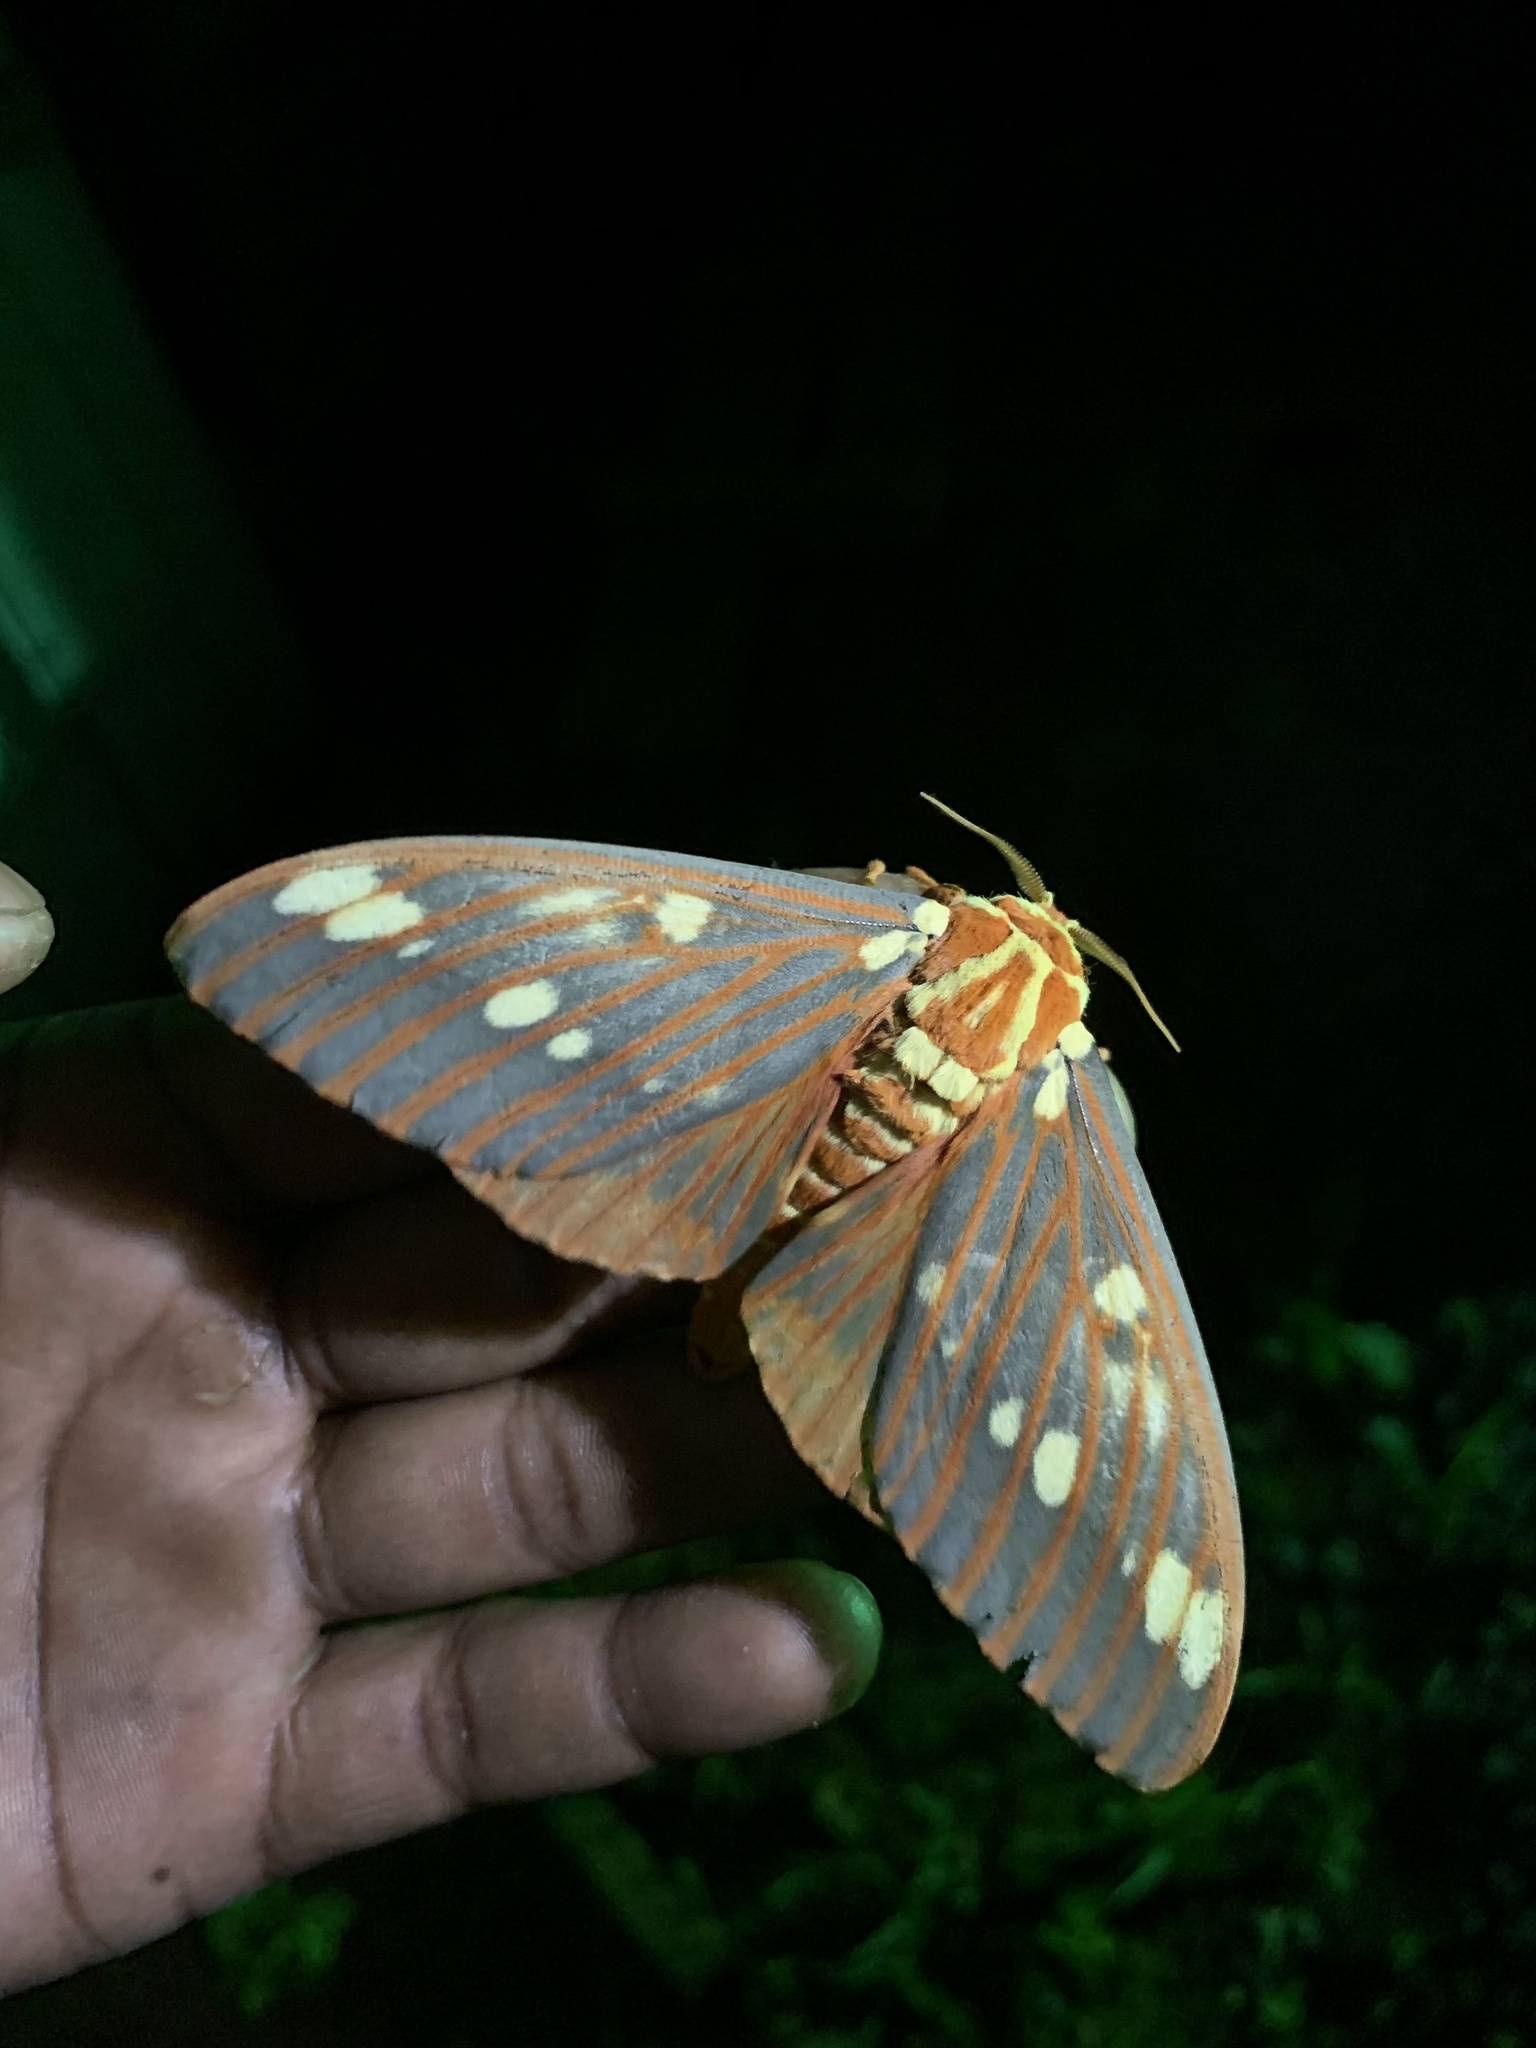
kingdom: Animalia
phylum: Arthropoda
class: Insecta
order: Lepidoptera
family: Saturniidae
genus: Citheronia
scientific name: Citheronia regalis
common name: Hickory horned devil
